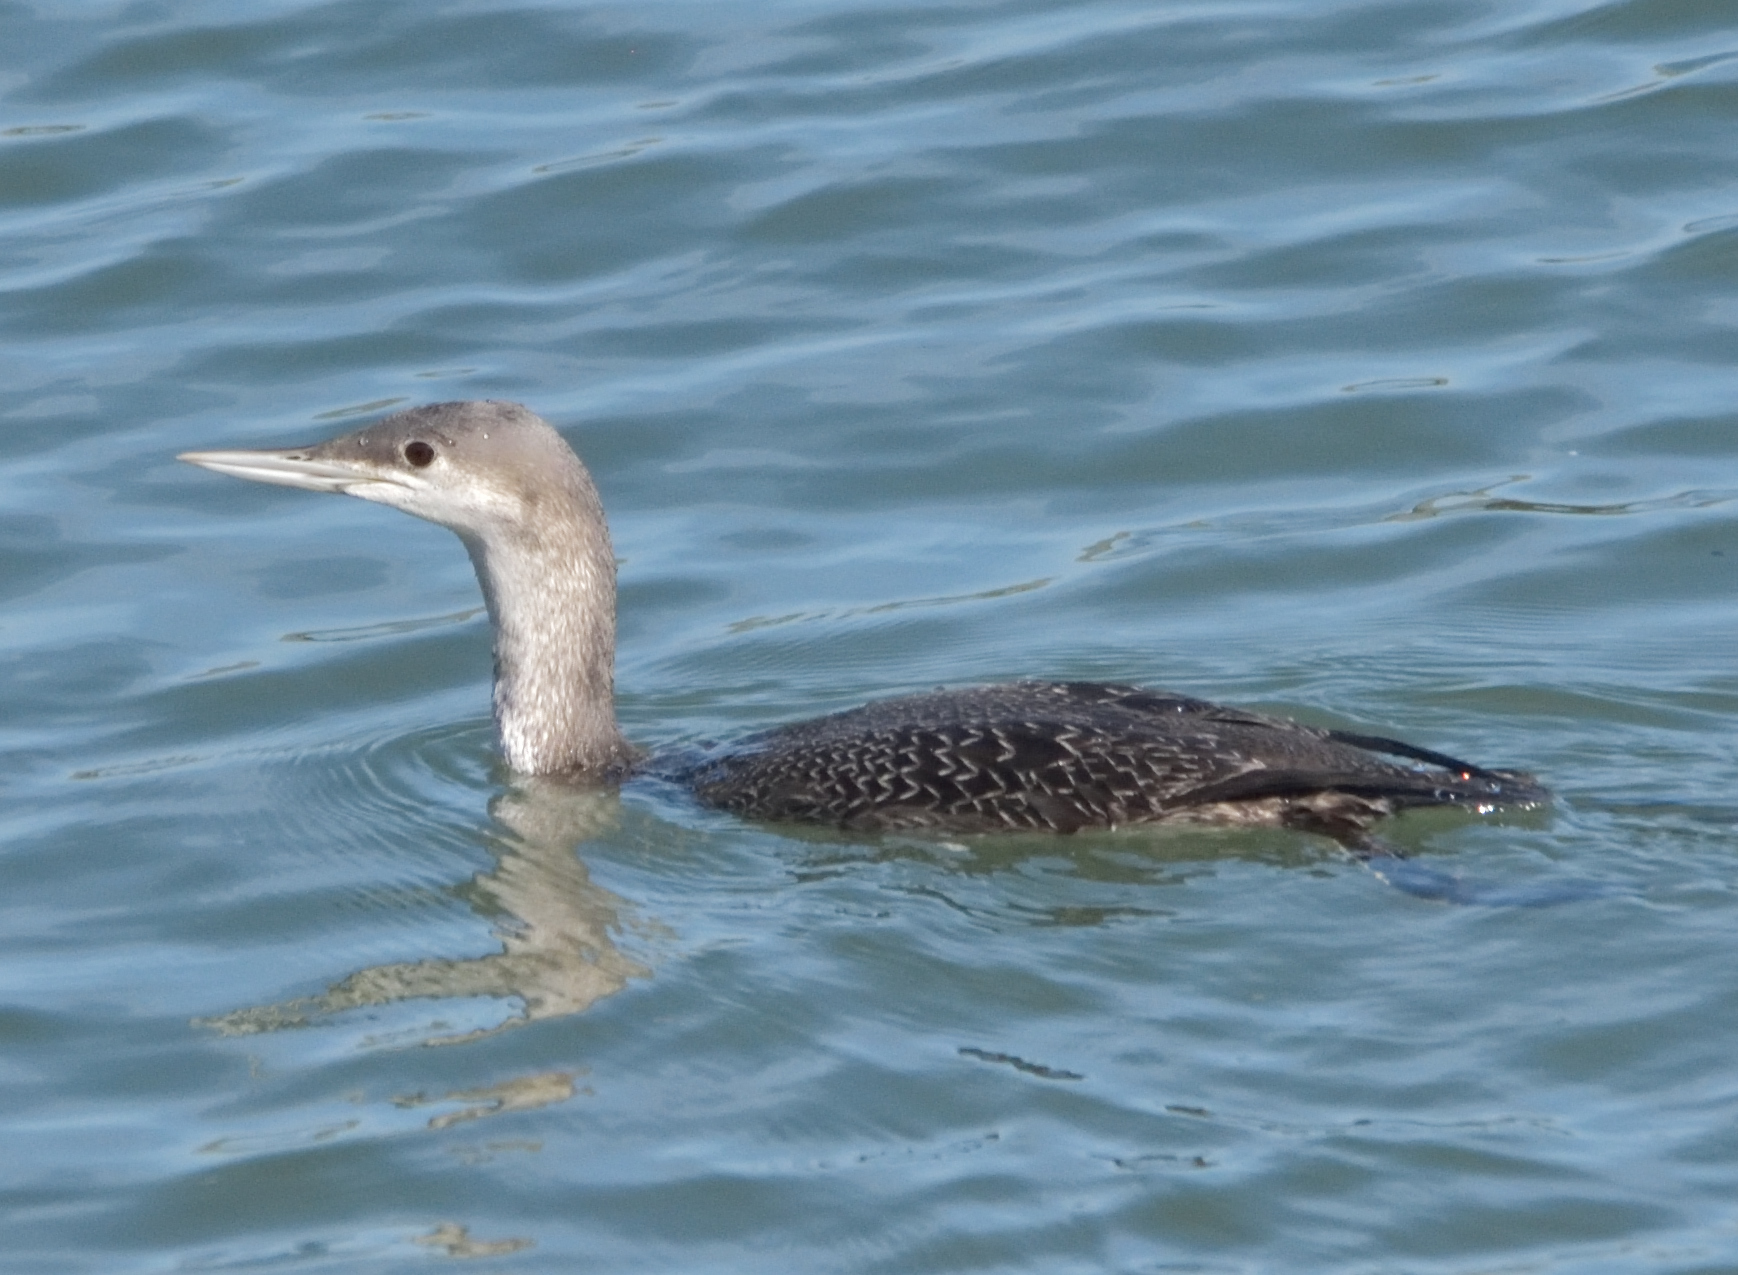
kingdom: Animalia
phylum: Chordata
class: Aves
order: Gaviiformes
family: Gaviidae
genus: Gavia
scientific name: Gavia stellata
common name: Red-throated loon
